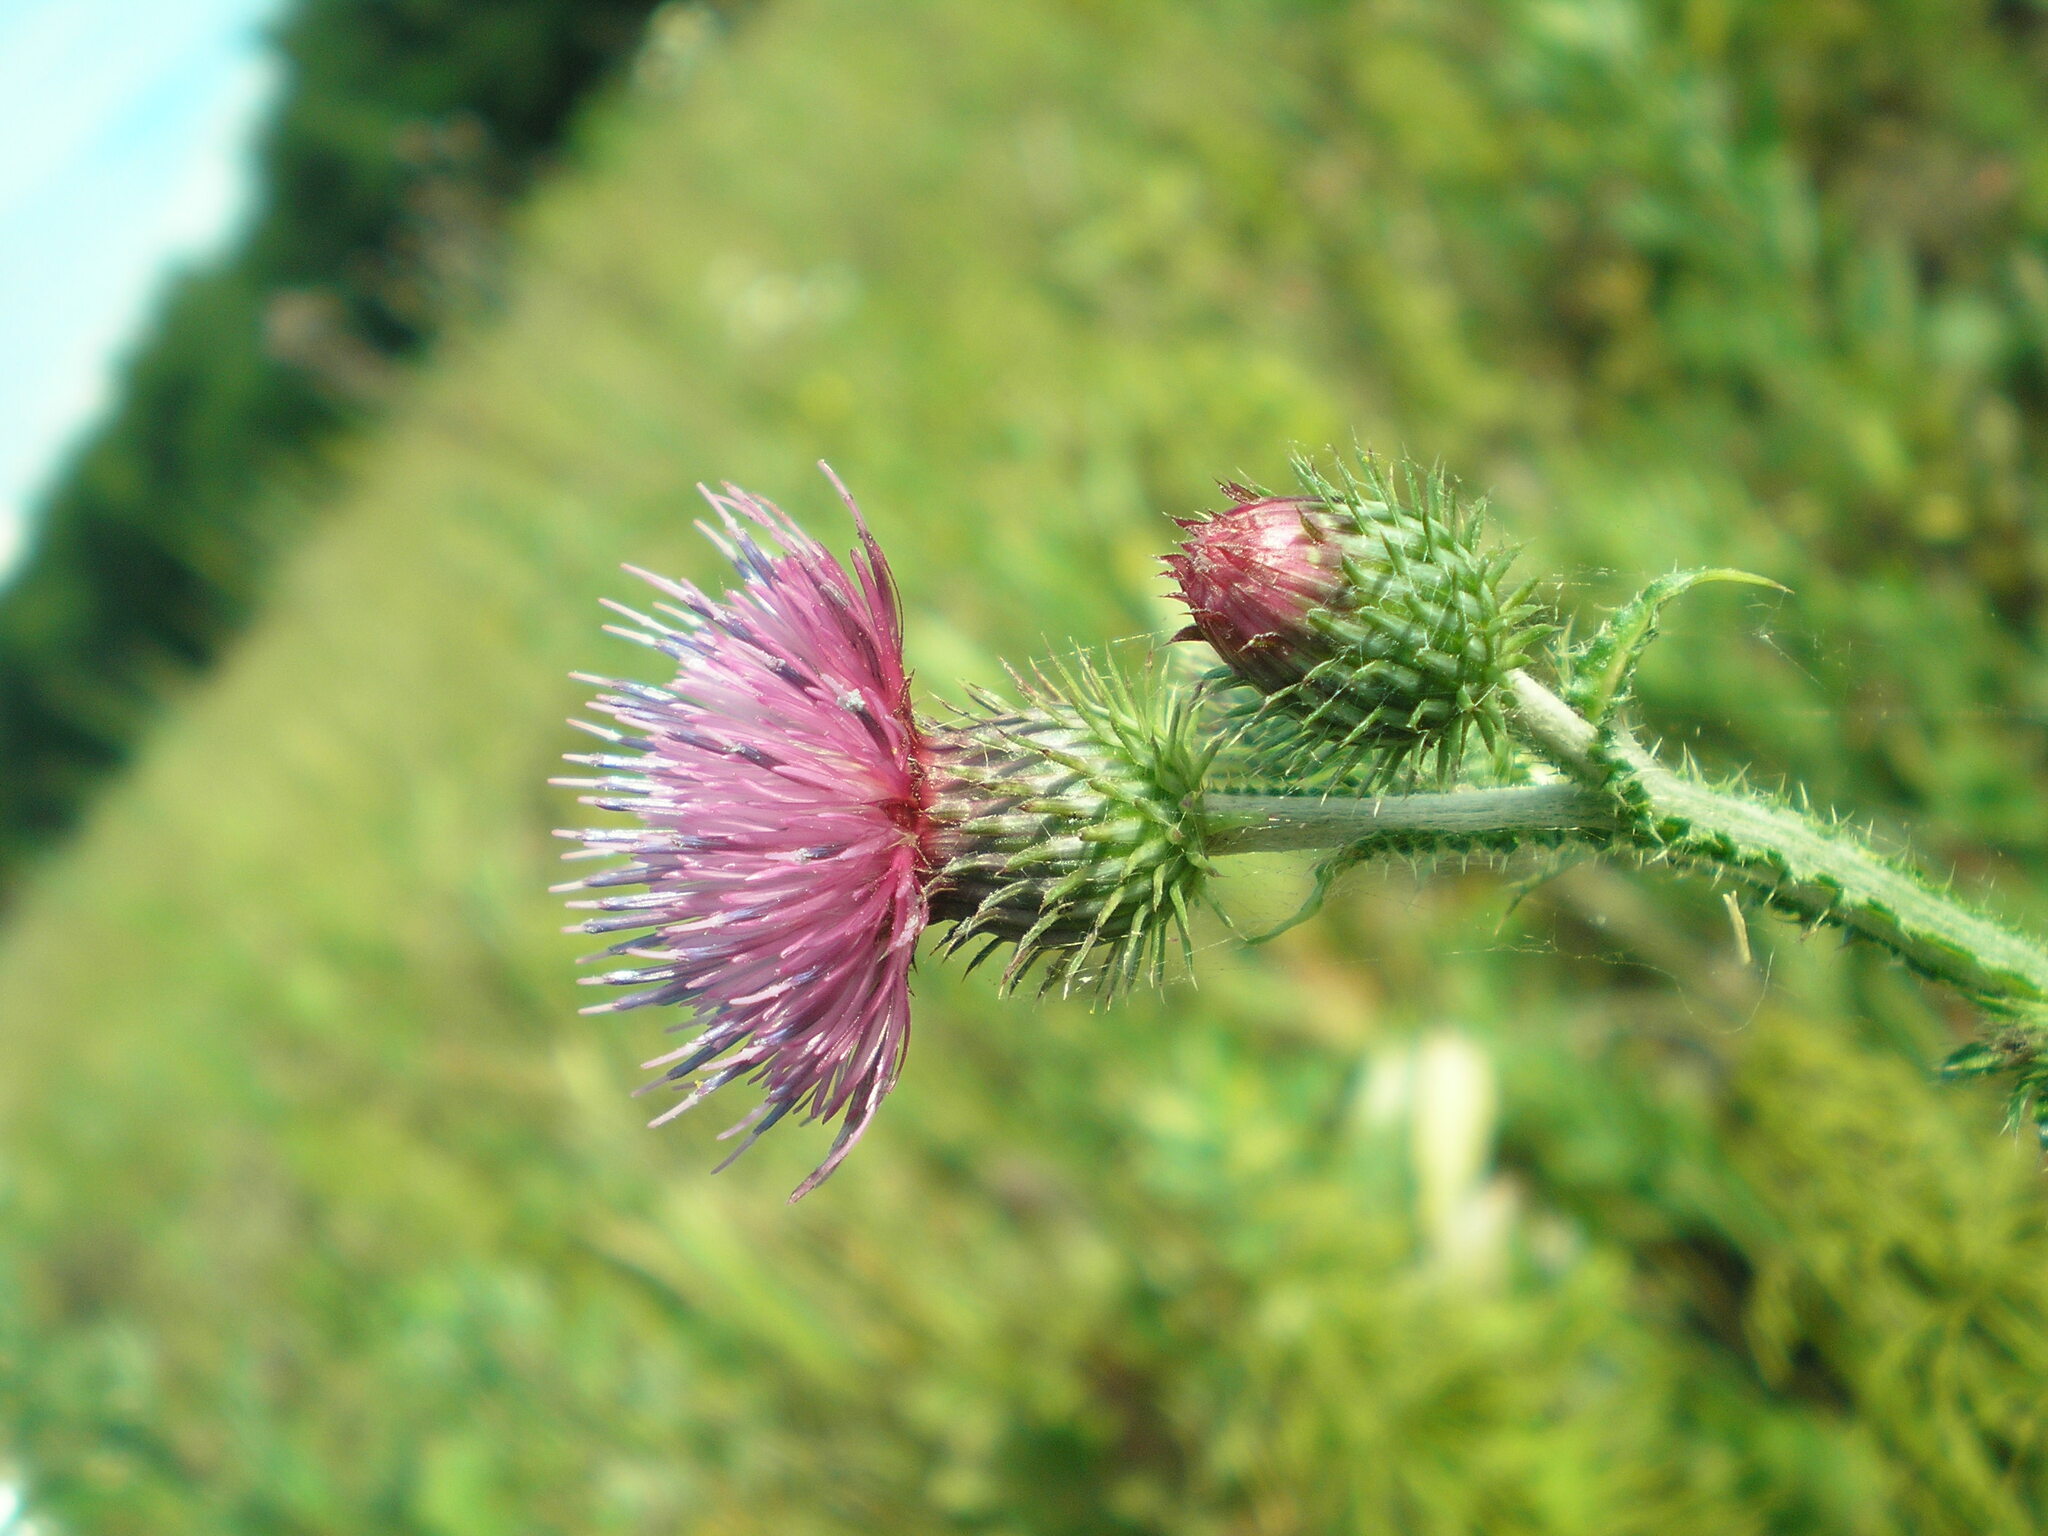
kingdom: Plantae
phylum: Tracheophyta
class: Magnoliopsida
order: Asterales
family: Asteraceae
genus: Carduus
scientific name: Carduus crispus
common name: Welted thistle
